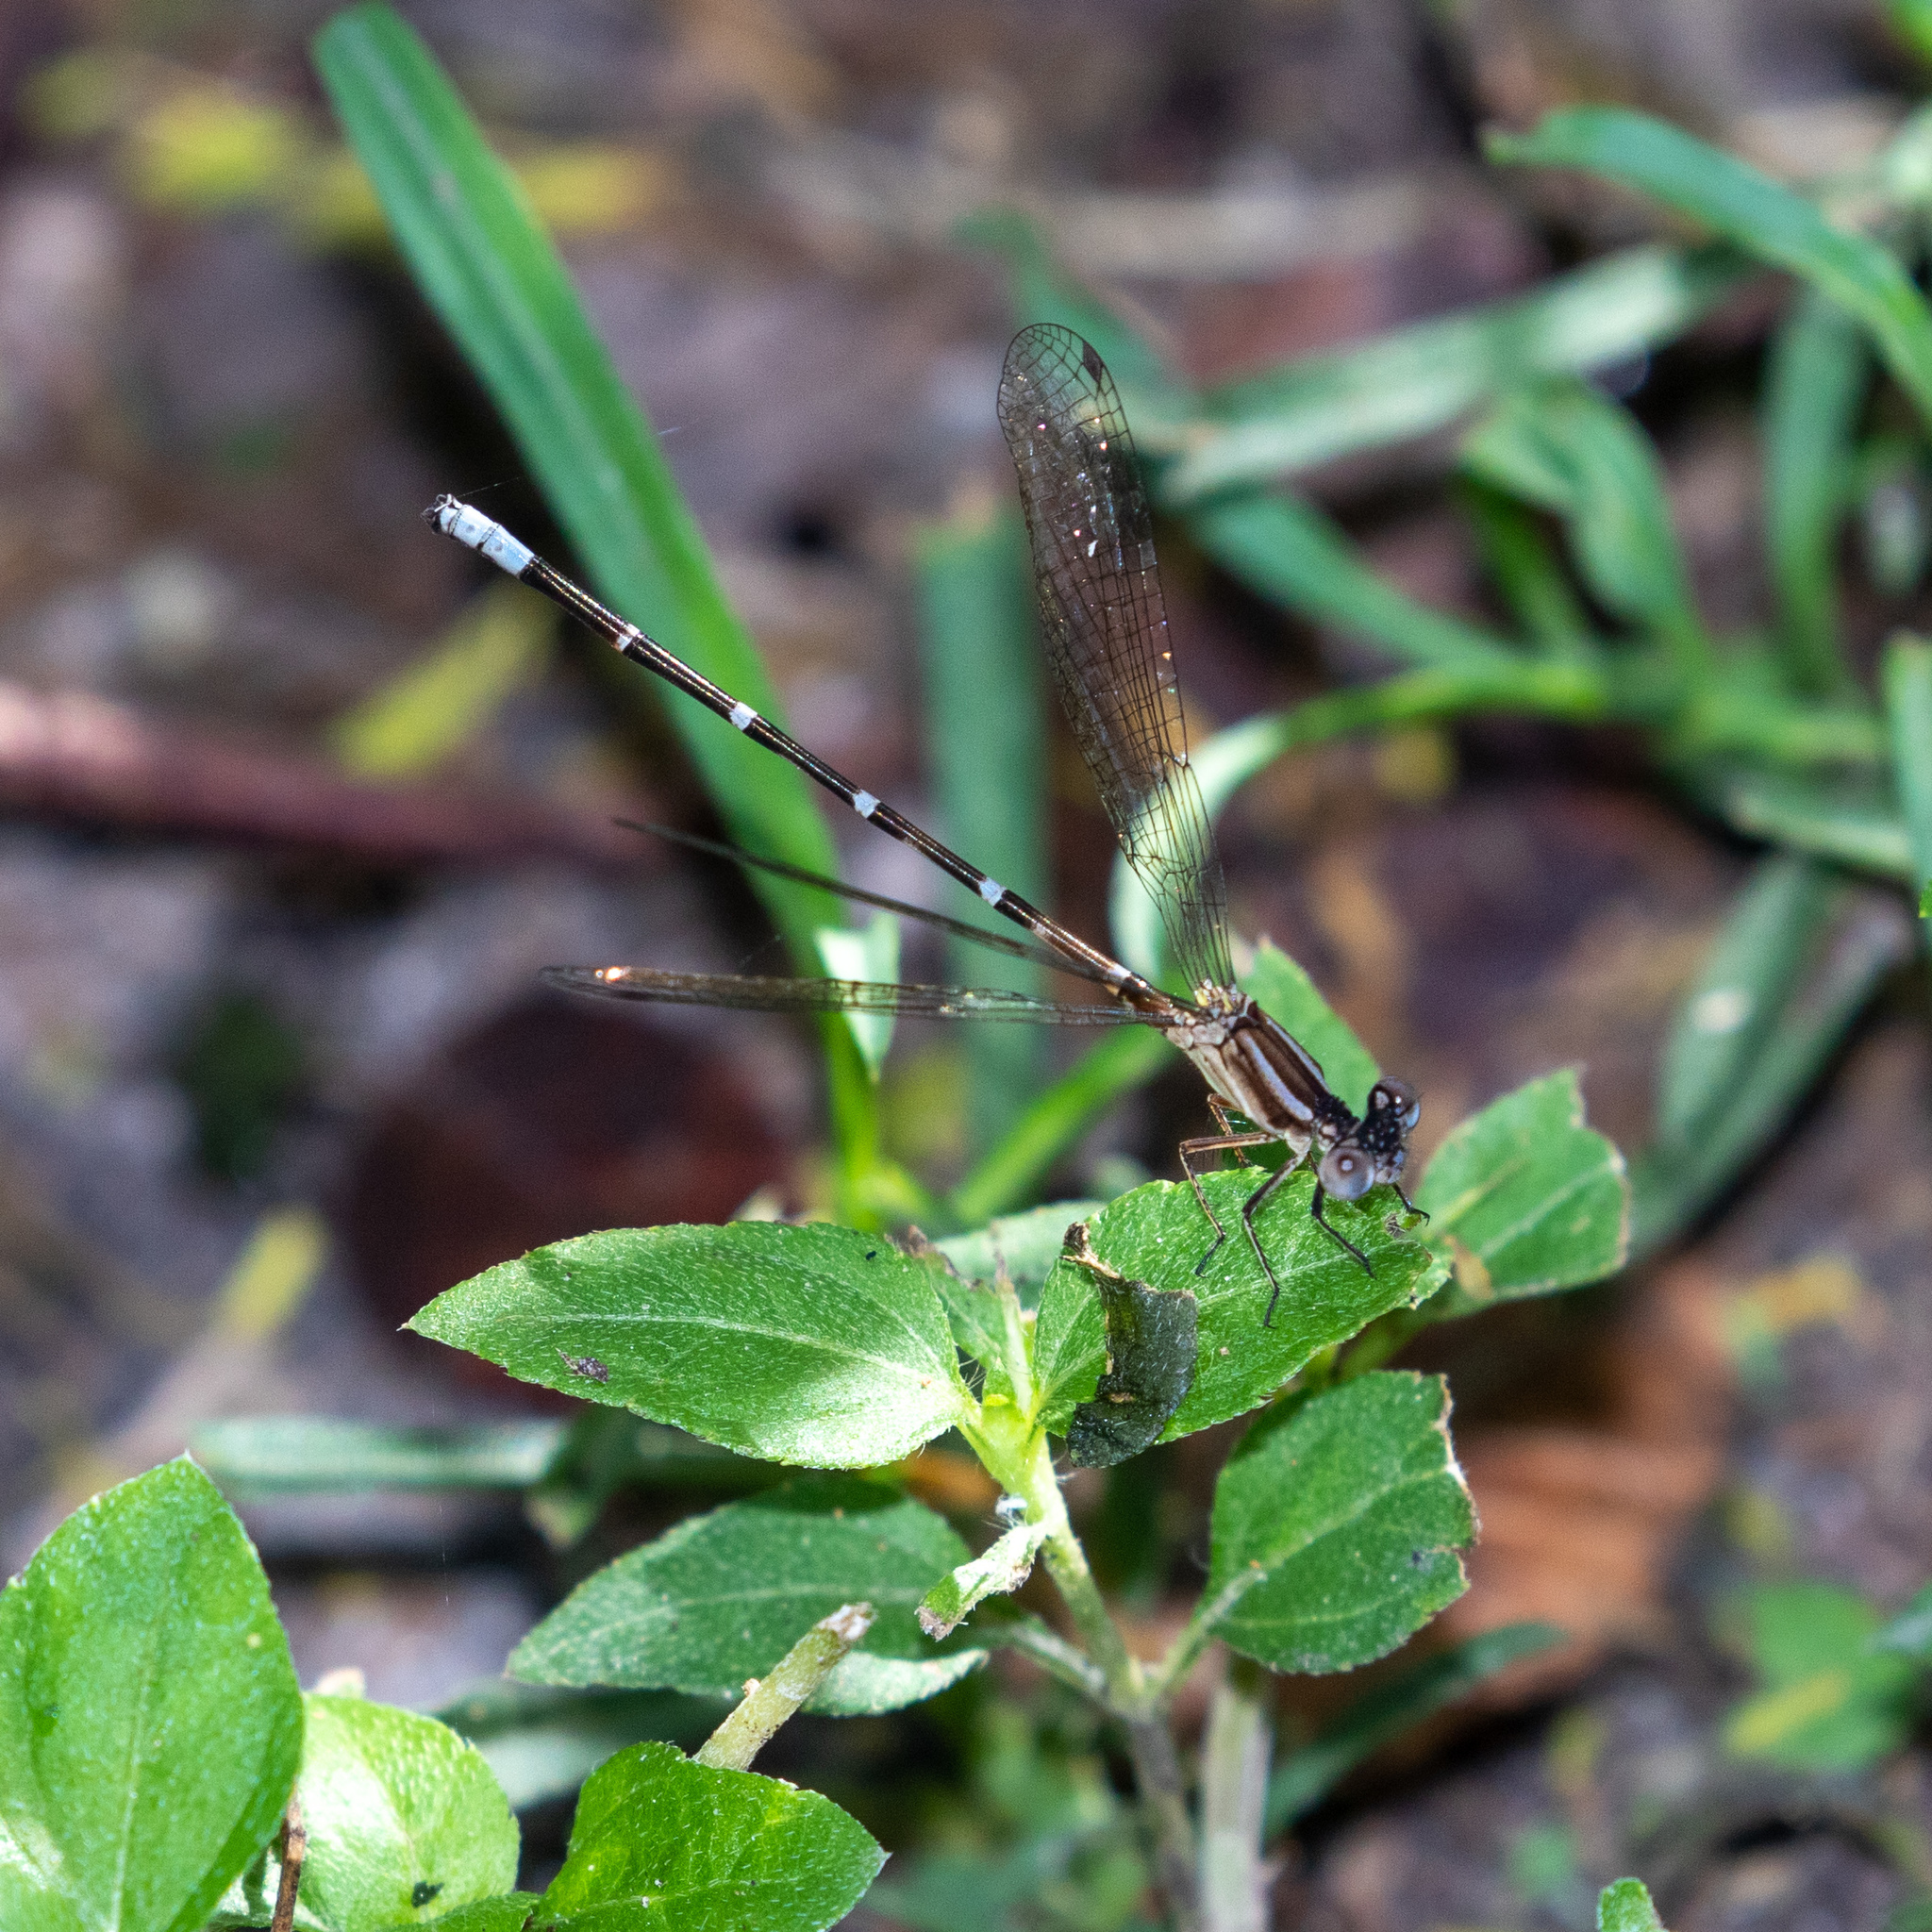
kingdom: Animalia
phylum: Arthropoda
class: Insecta
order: Odonata
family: Coenagrionidae
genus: Argia
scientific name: Argia sedula
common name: Blue-ringed dancer
